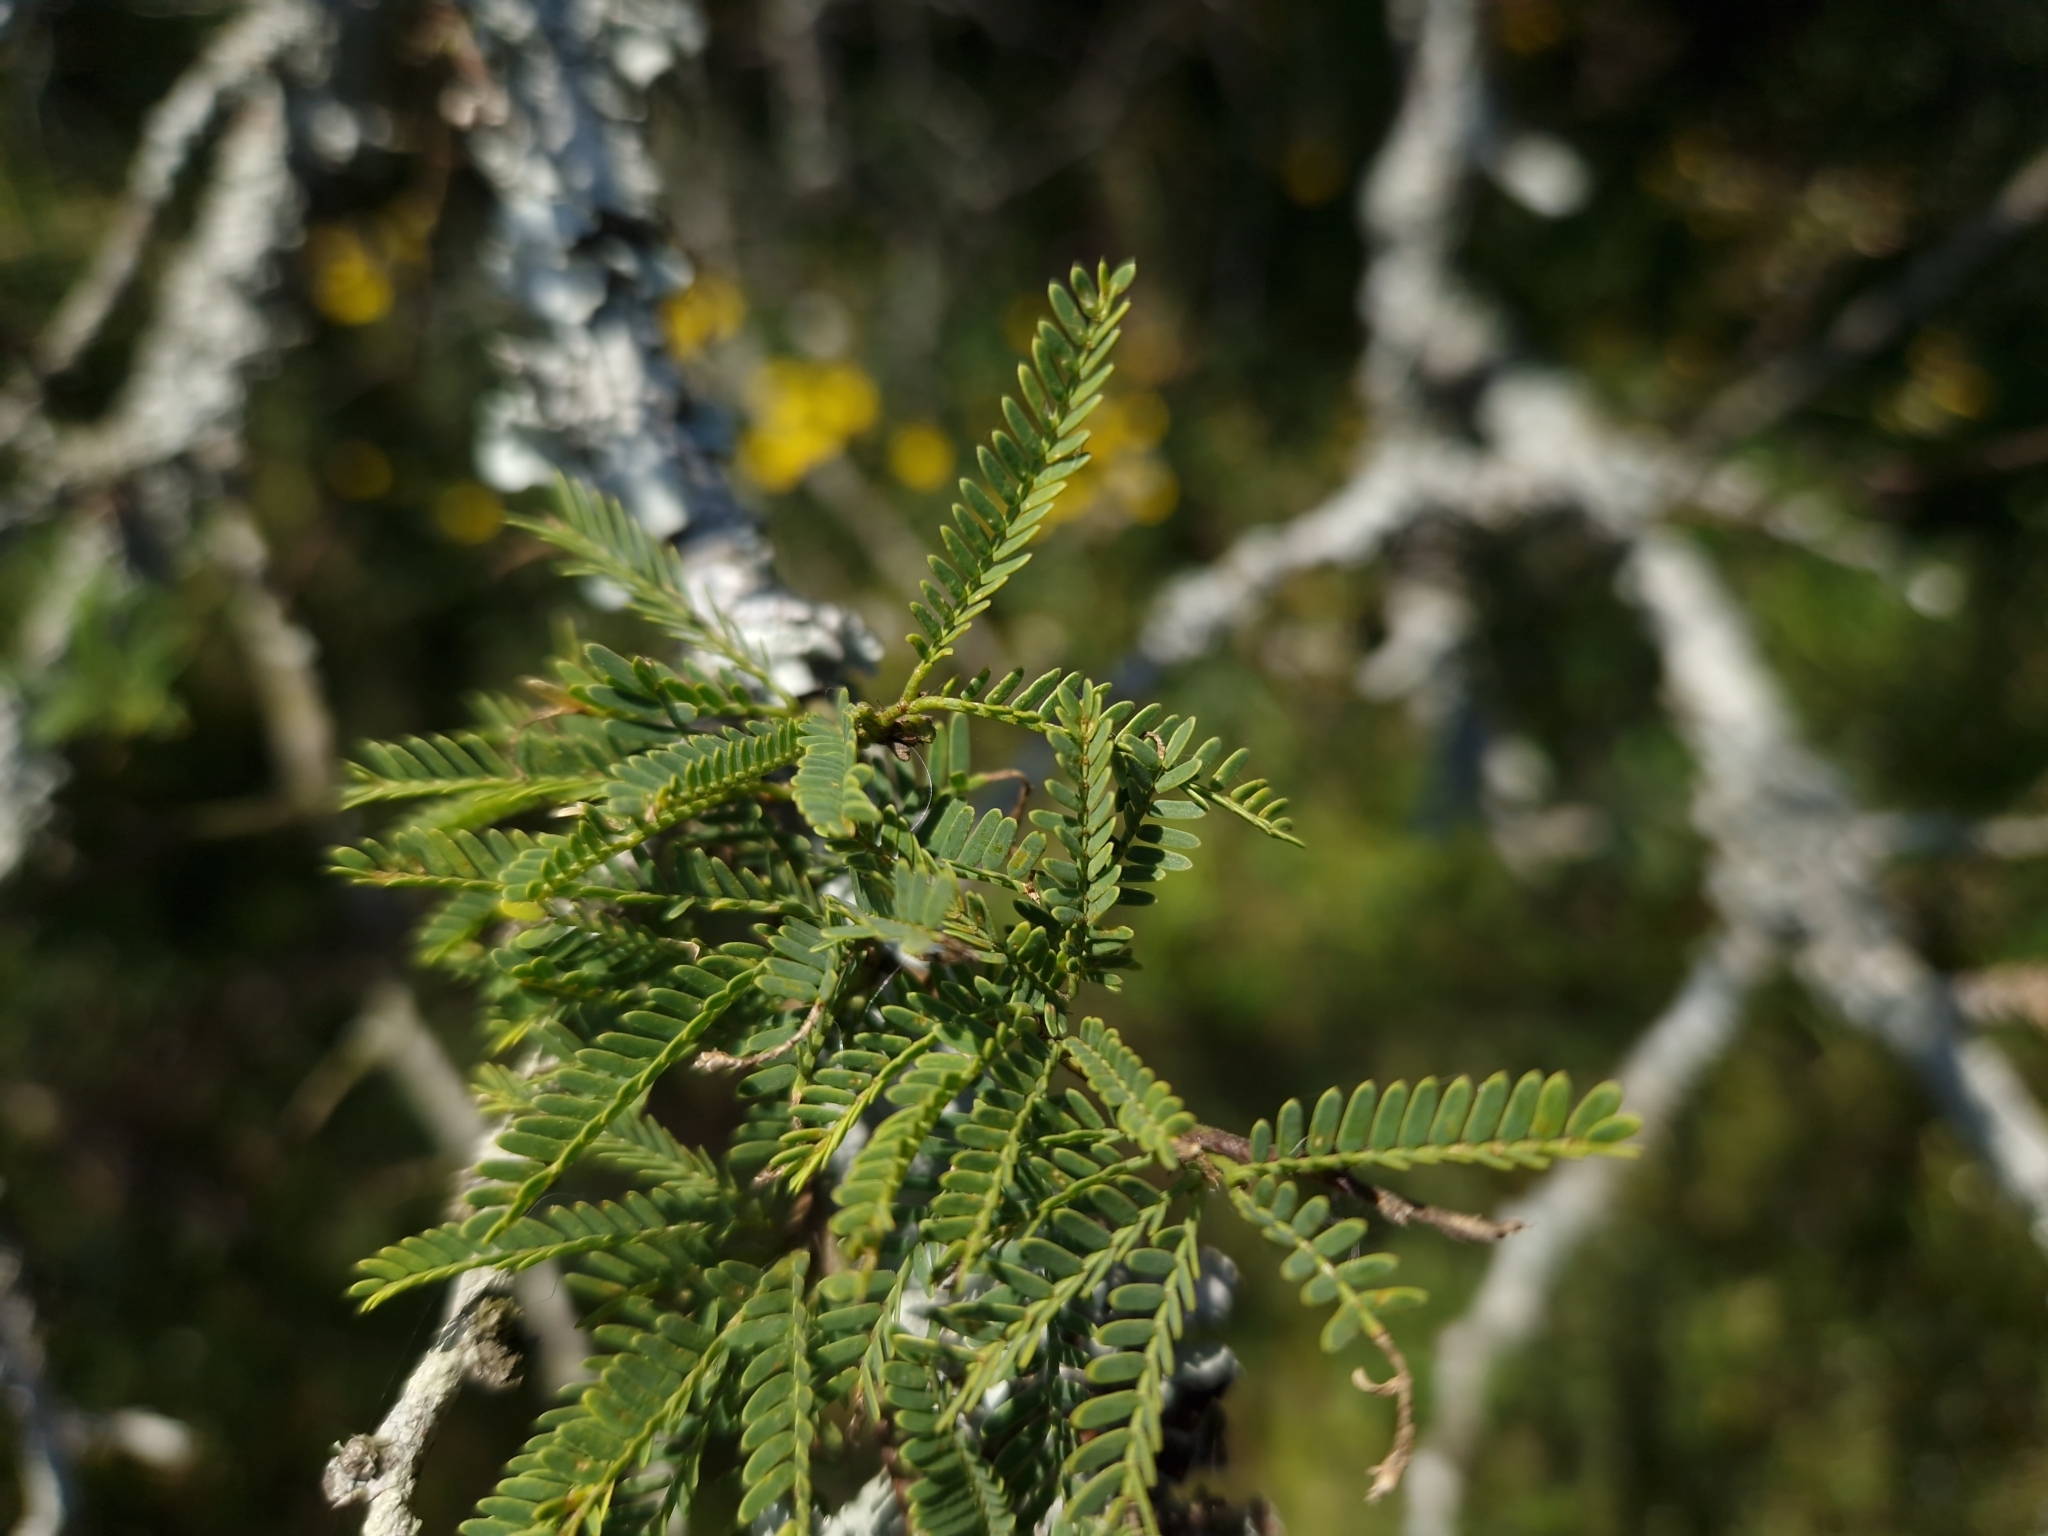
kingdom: Plantae
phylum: Tracheophyta
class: Magnoliopsida
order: Fabales
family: Fabaceae
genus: Prosopis
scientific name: Prosopis affinis
